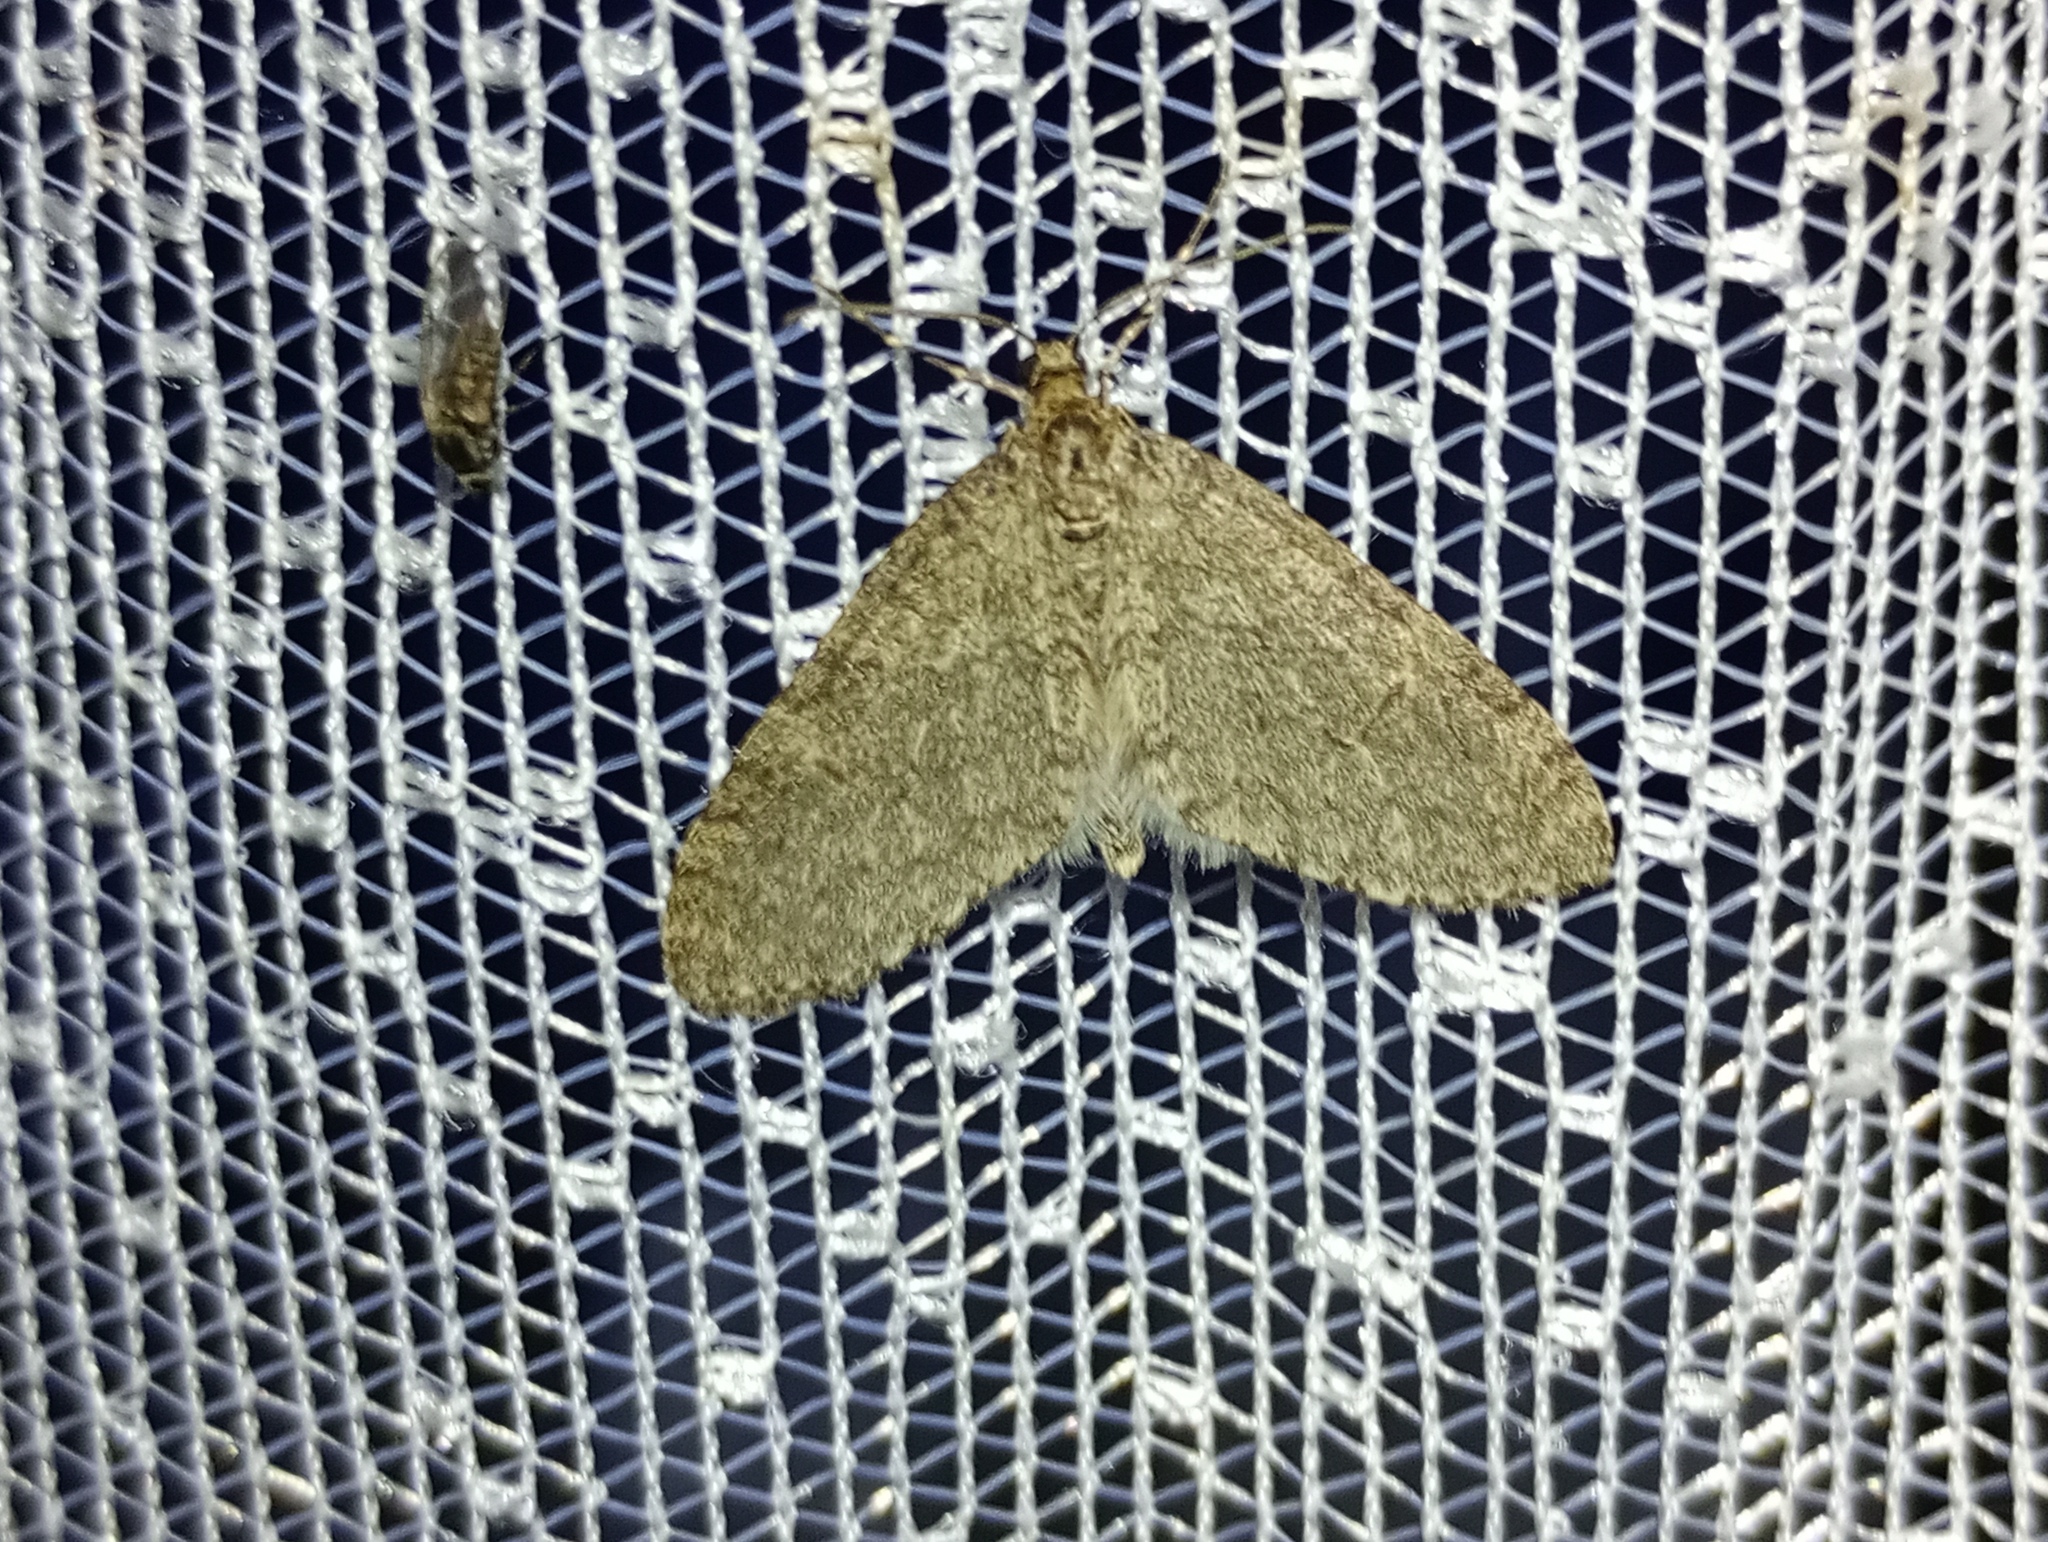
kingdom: Animalia
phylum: Arthropoda
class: Insecta
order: Lepidoptera
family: Geometridae
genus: Trichopteryx
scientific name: Trichopteryx carpinata
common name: Early tooth-striped
